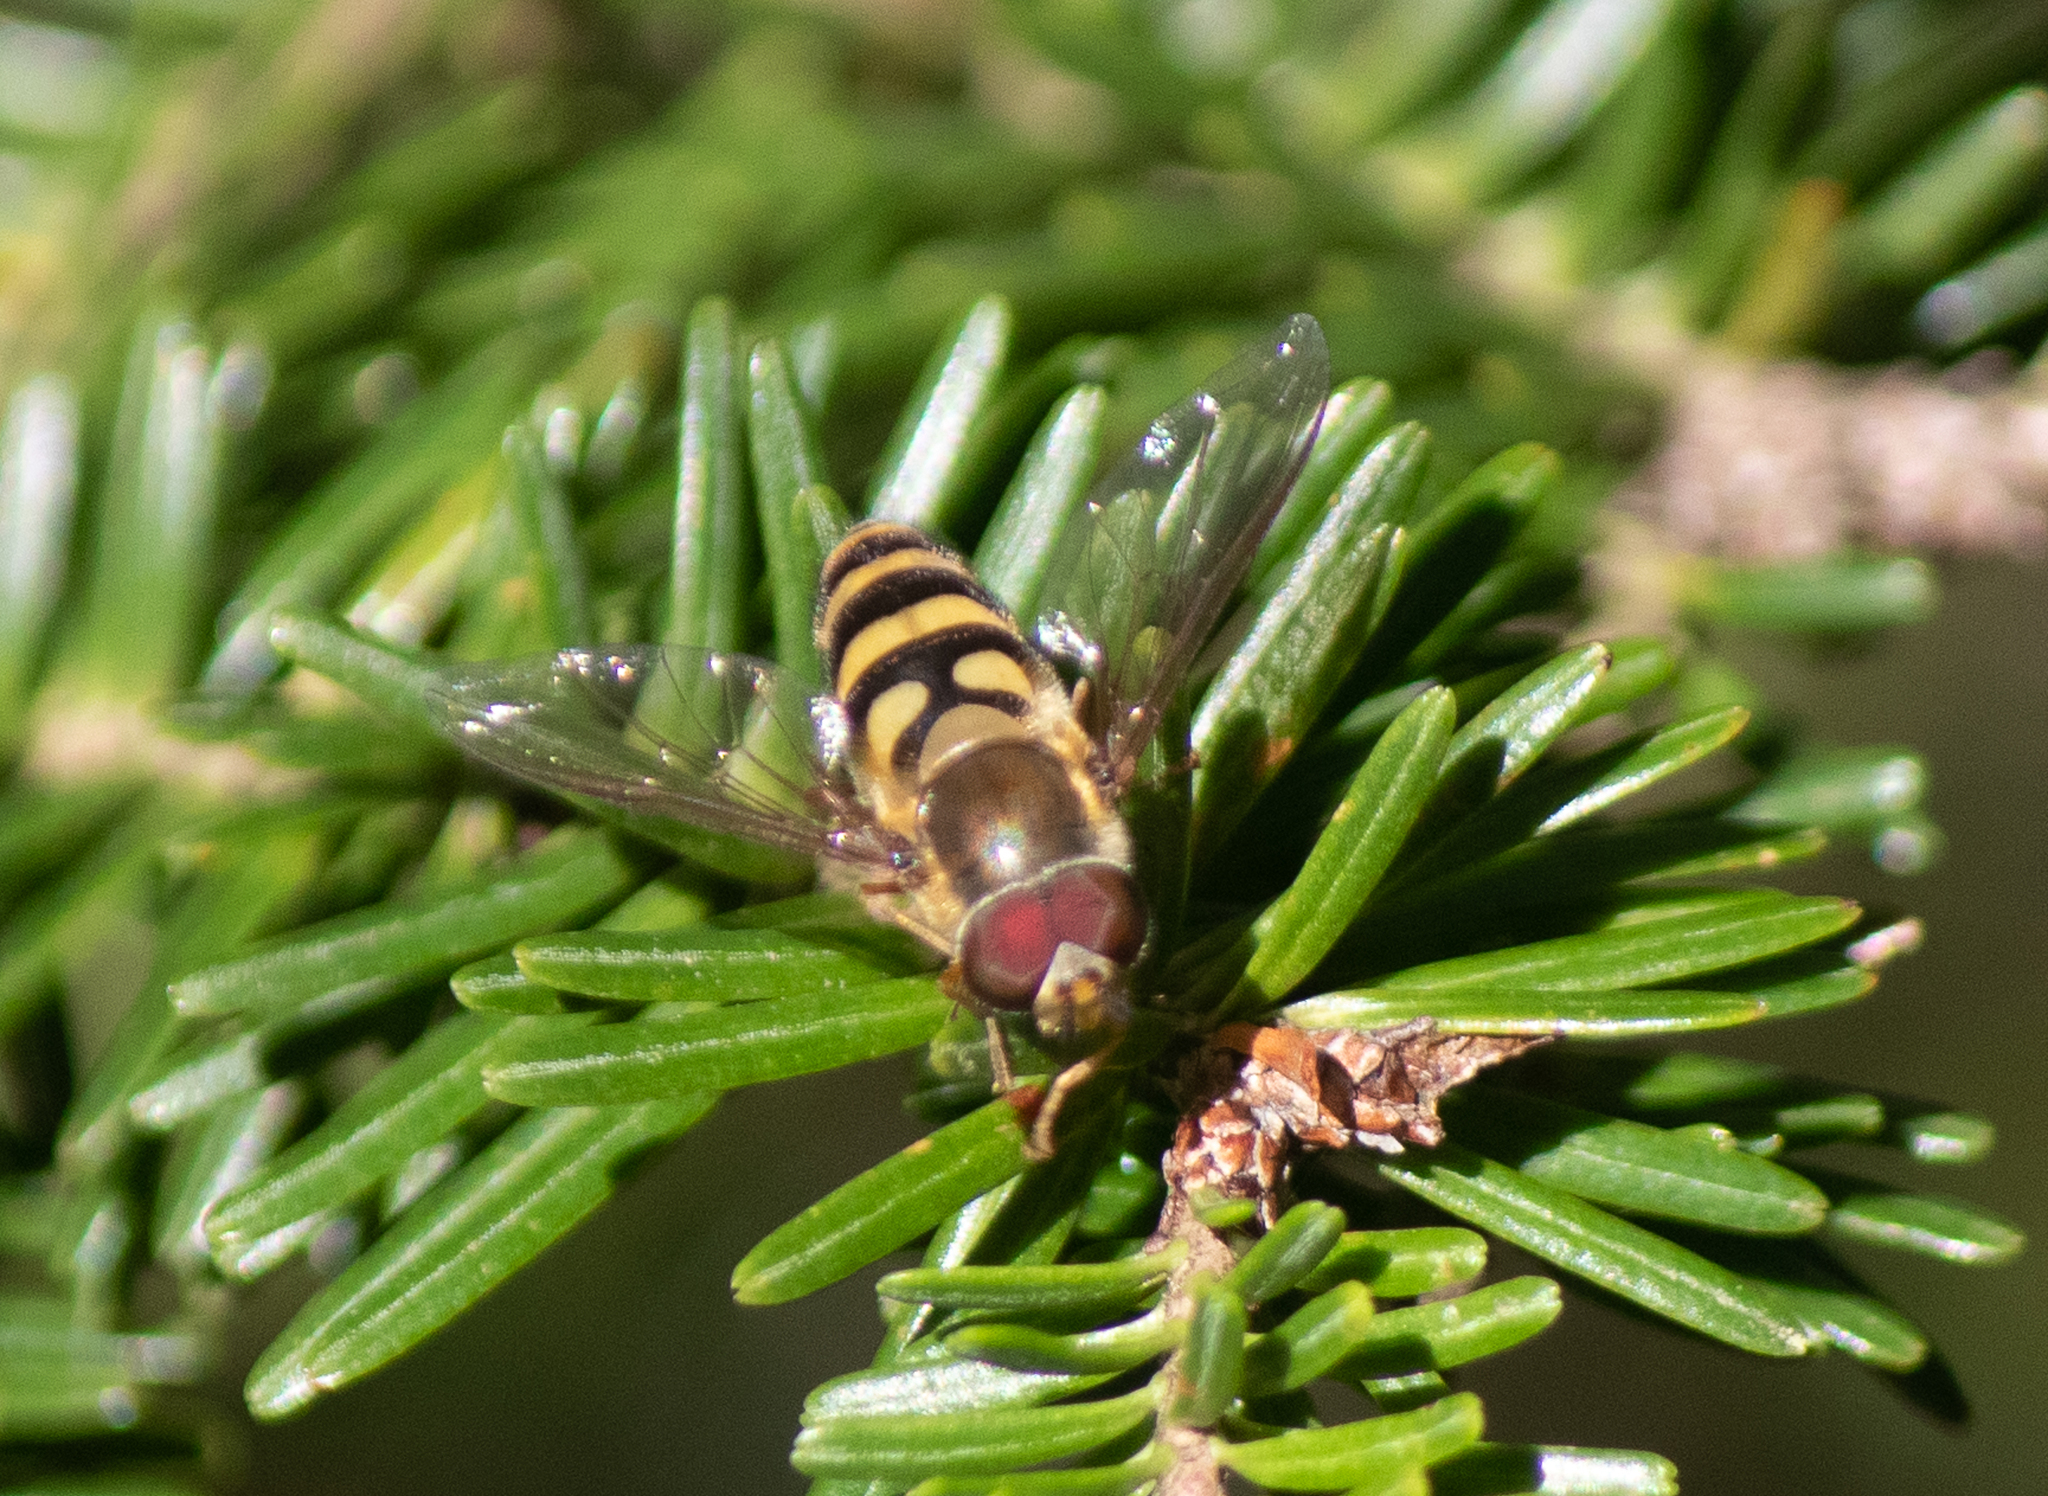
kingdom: Animalia
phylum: Arthropoda
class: Insecta
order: Diptera
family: Syrphidae
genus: Syrphus
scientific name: Syrphus torvus
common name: Hairy-eyed flower fly
